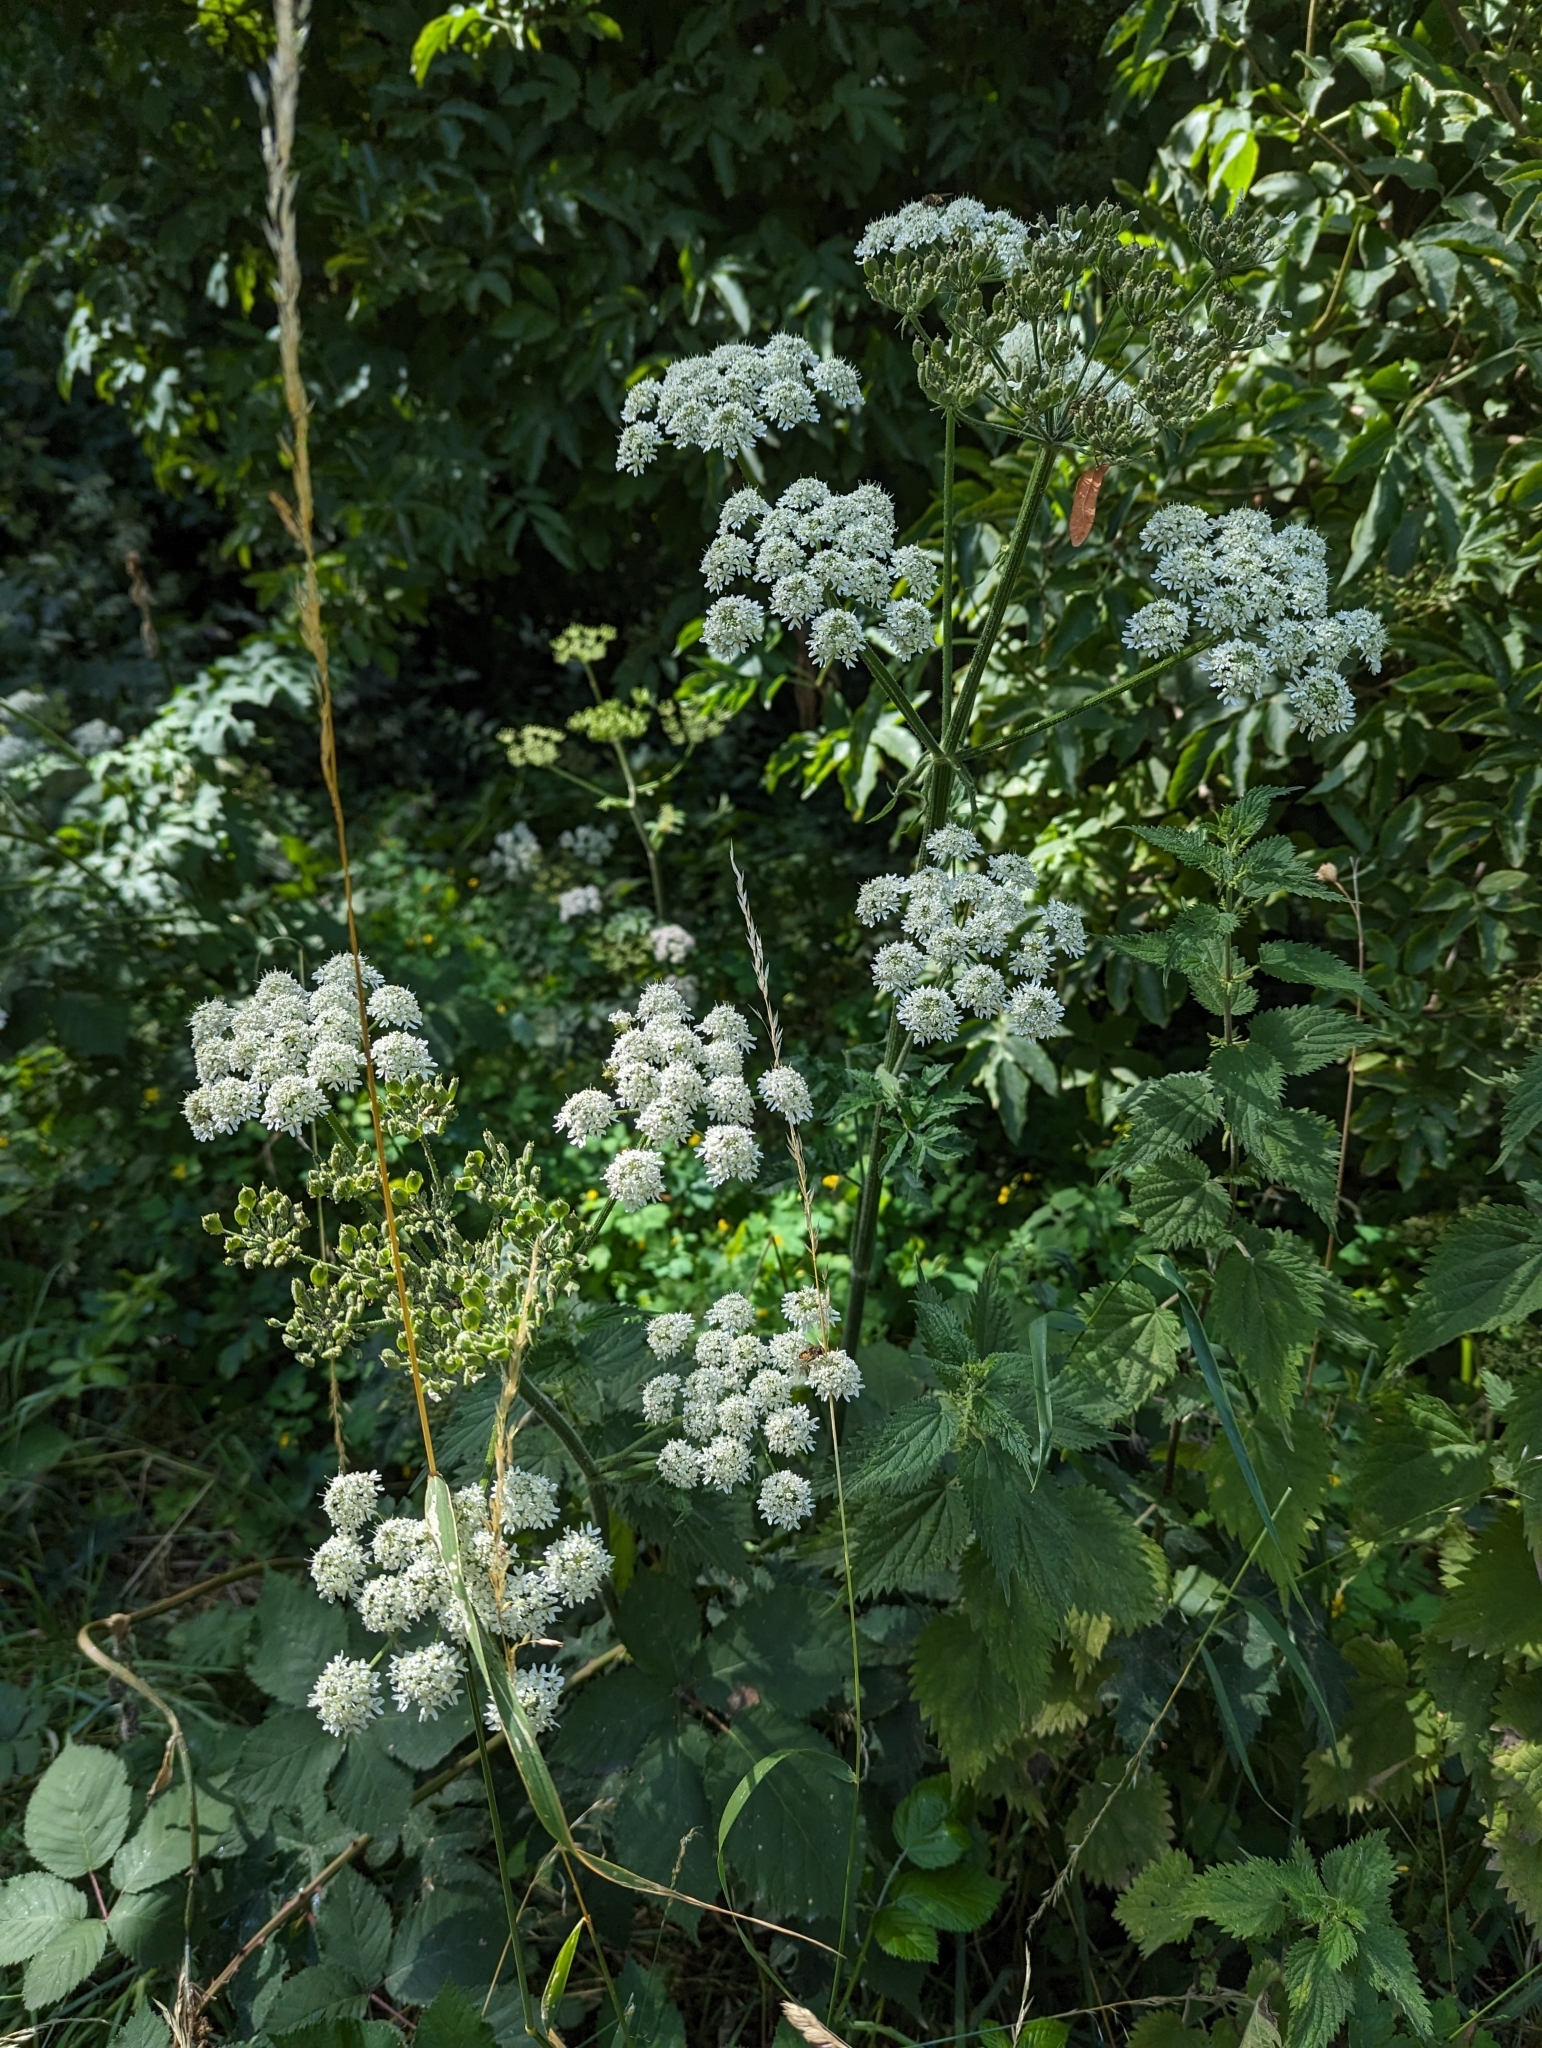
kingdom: Plantae
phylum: Tracheophyta
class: Magnoliopsida
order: Apiales
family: Apiaceae
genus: Heracleum
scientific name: Heracleum sphondylium
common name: Hogweed
